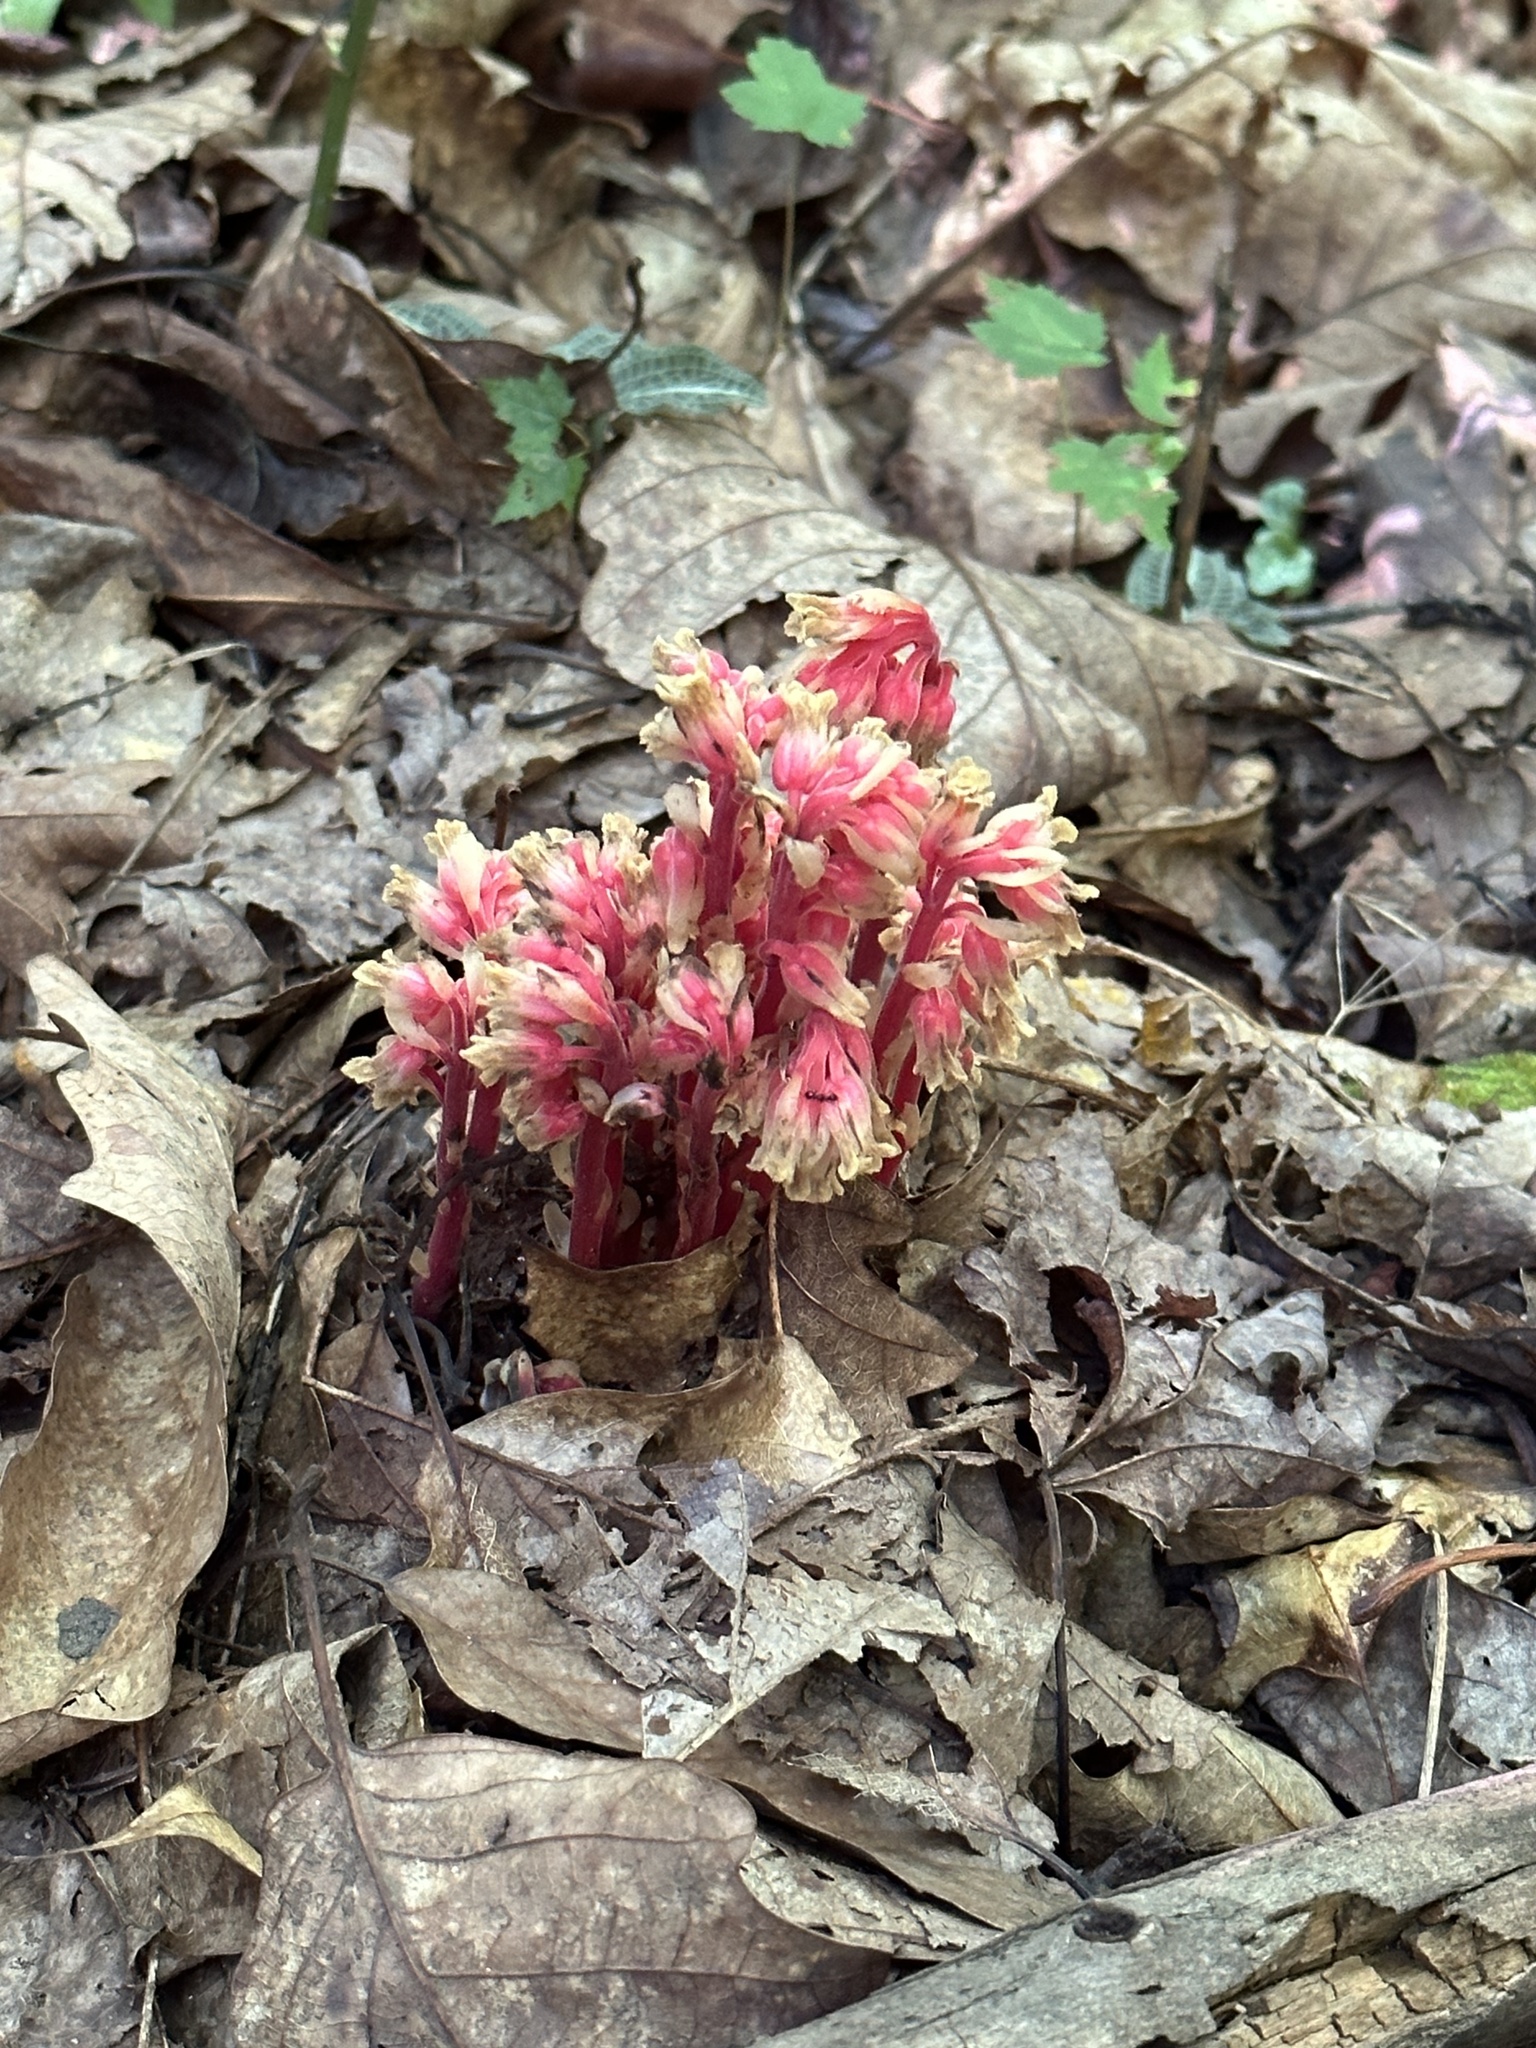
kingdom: Plantae
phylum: Tracheophyta
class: Magnoliopsida
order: Ericales
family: Ericaceae
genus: Hypopitys
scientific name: Hypopitys monotropa
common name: Yellow bird's-nest
